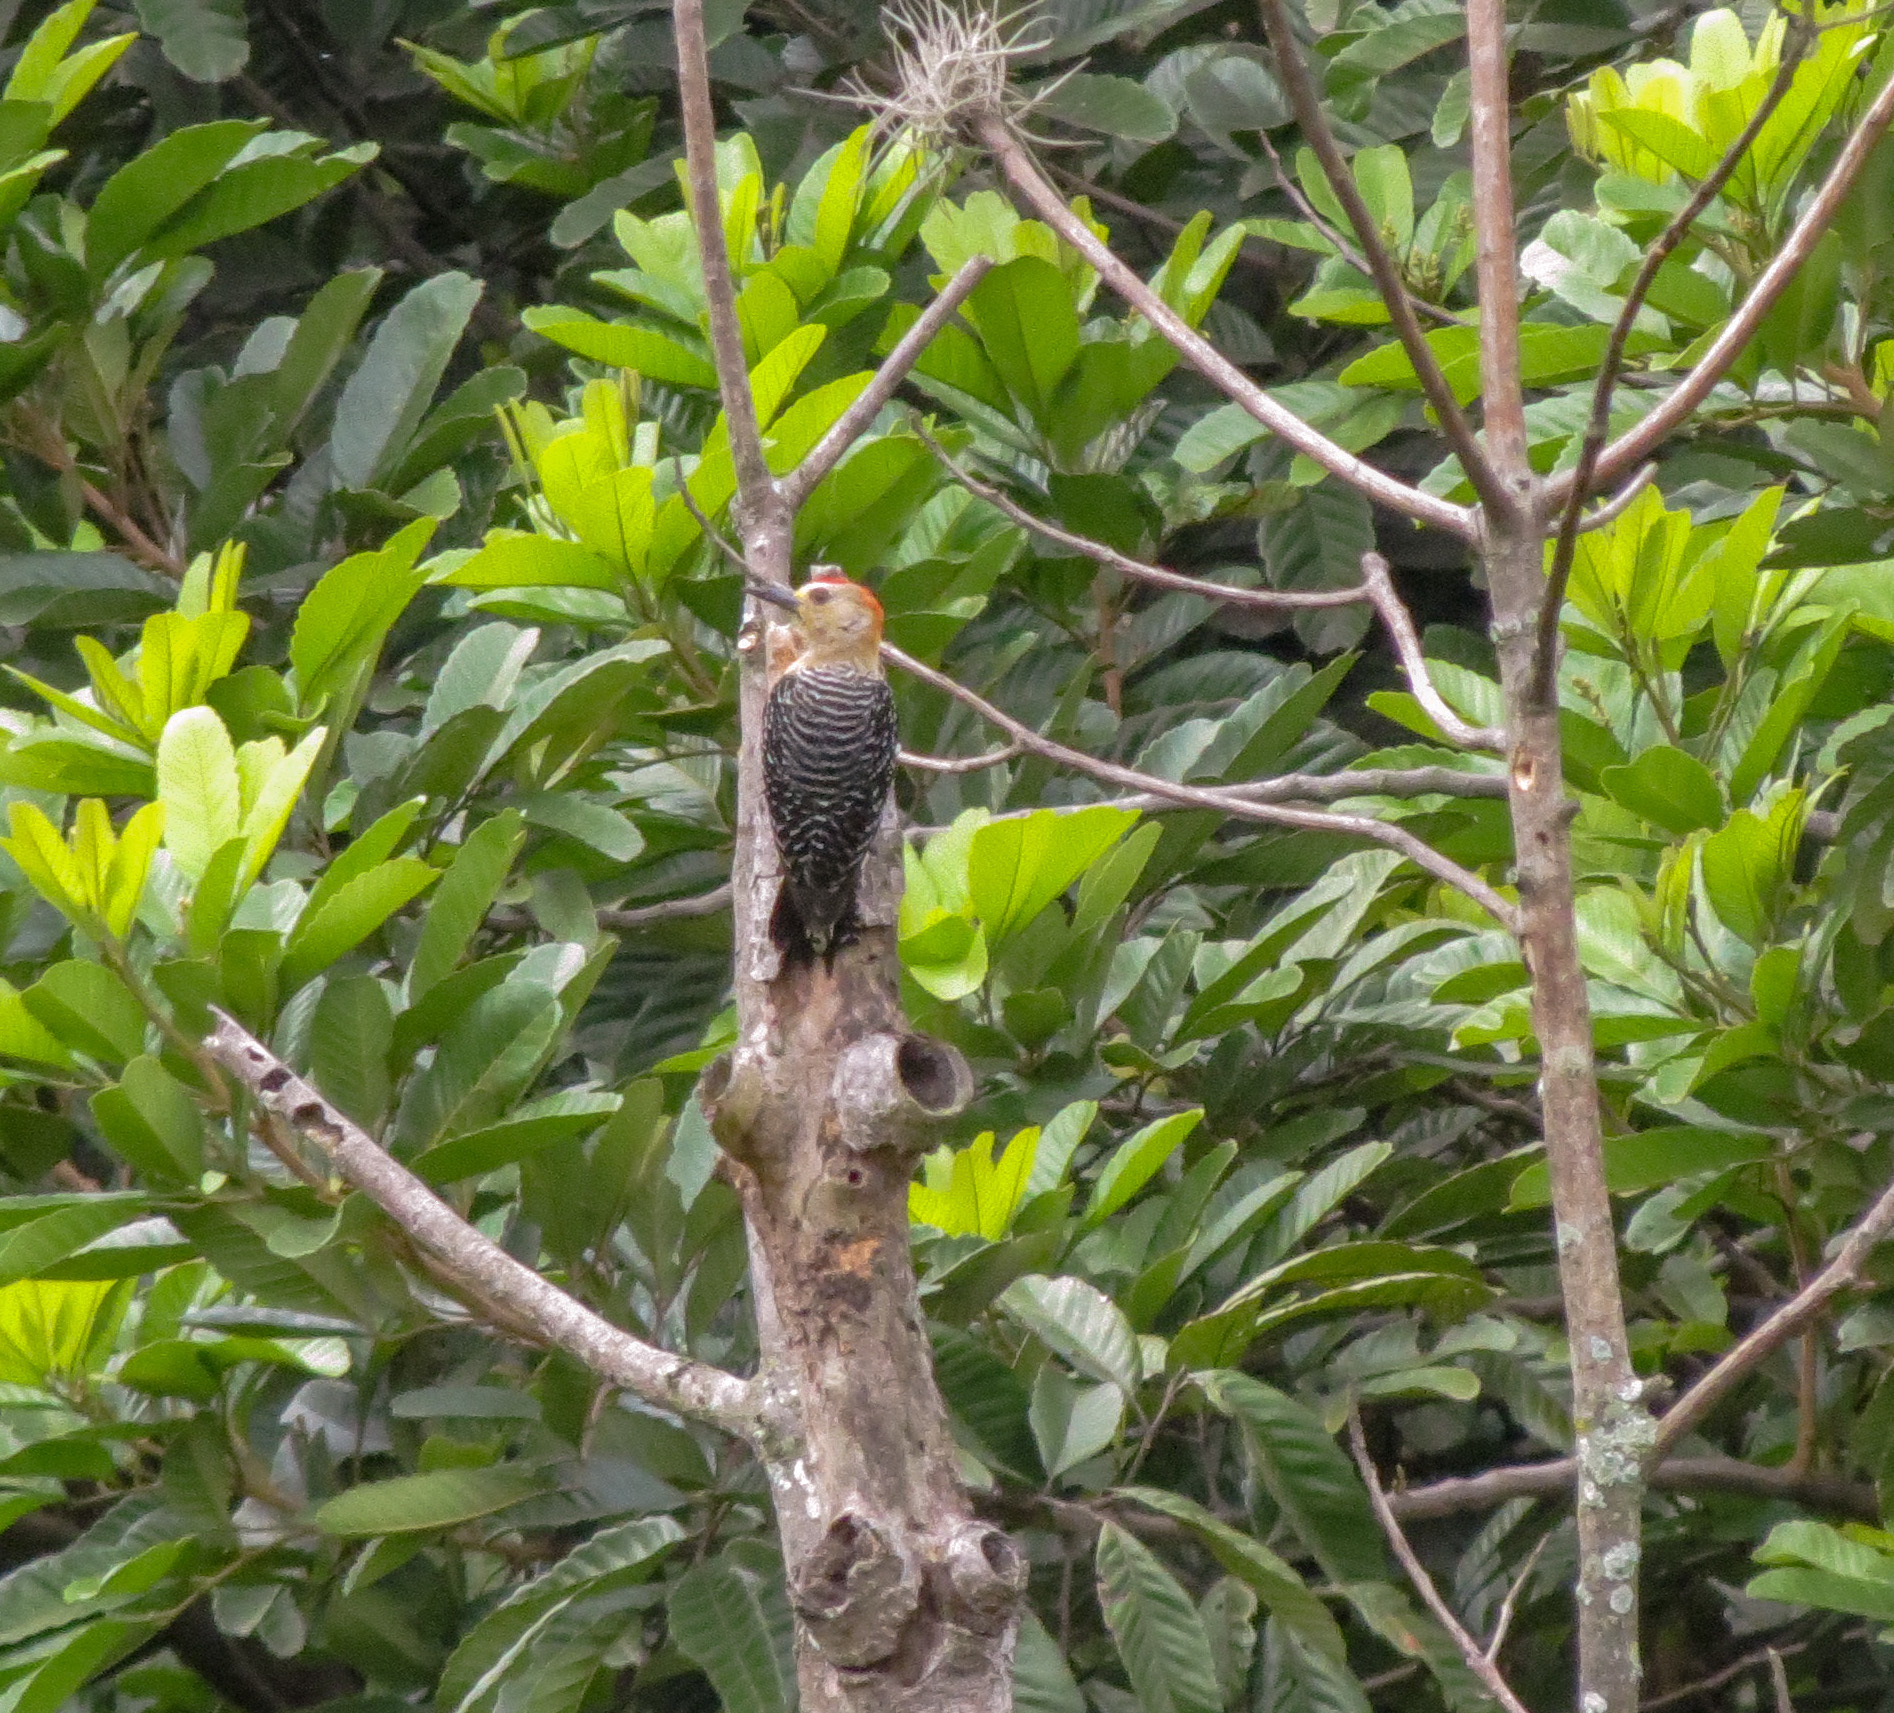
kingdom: Animalia
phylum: Chordata
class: Aves
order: Piciformes
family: Picidae
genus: Melanerpes
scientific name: Melanerpes rubricapillus
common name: Red-crowned woodpecker
